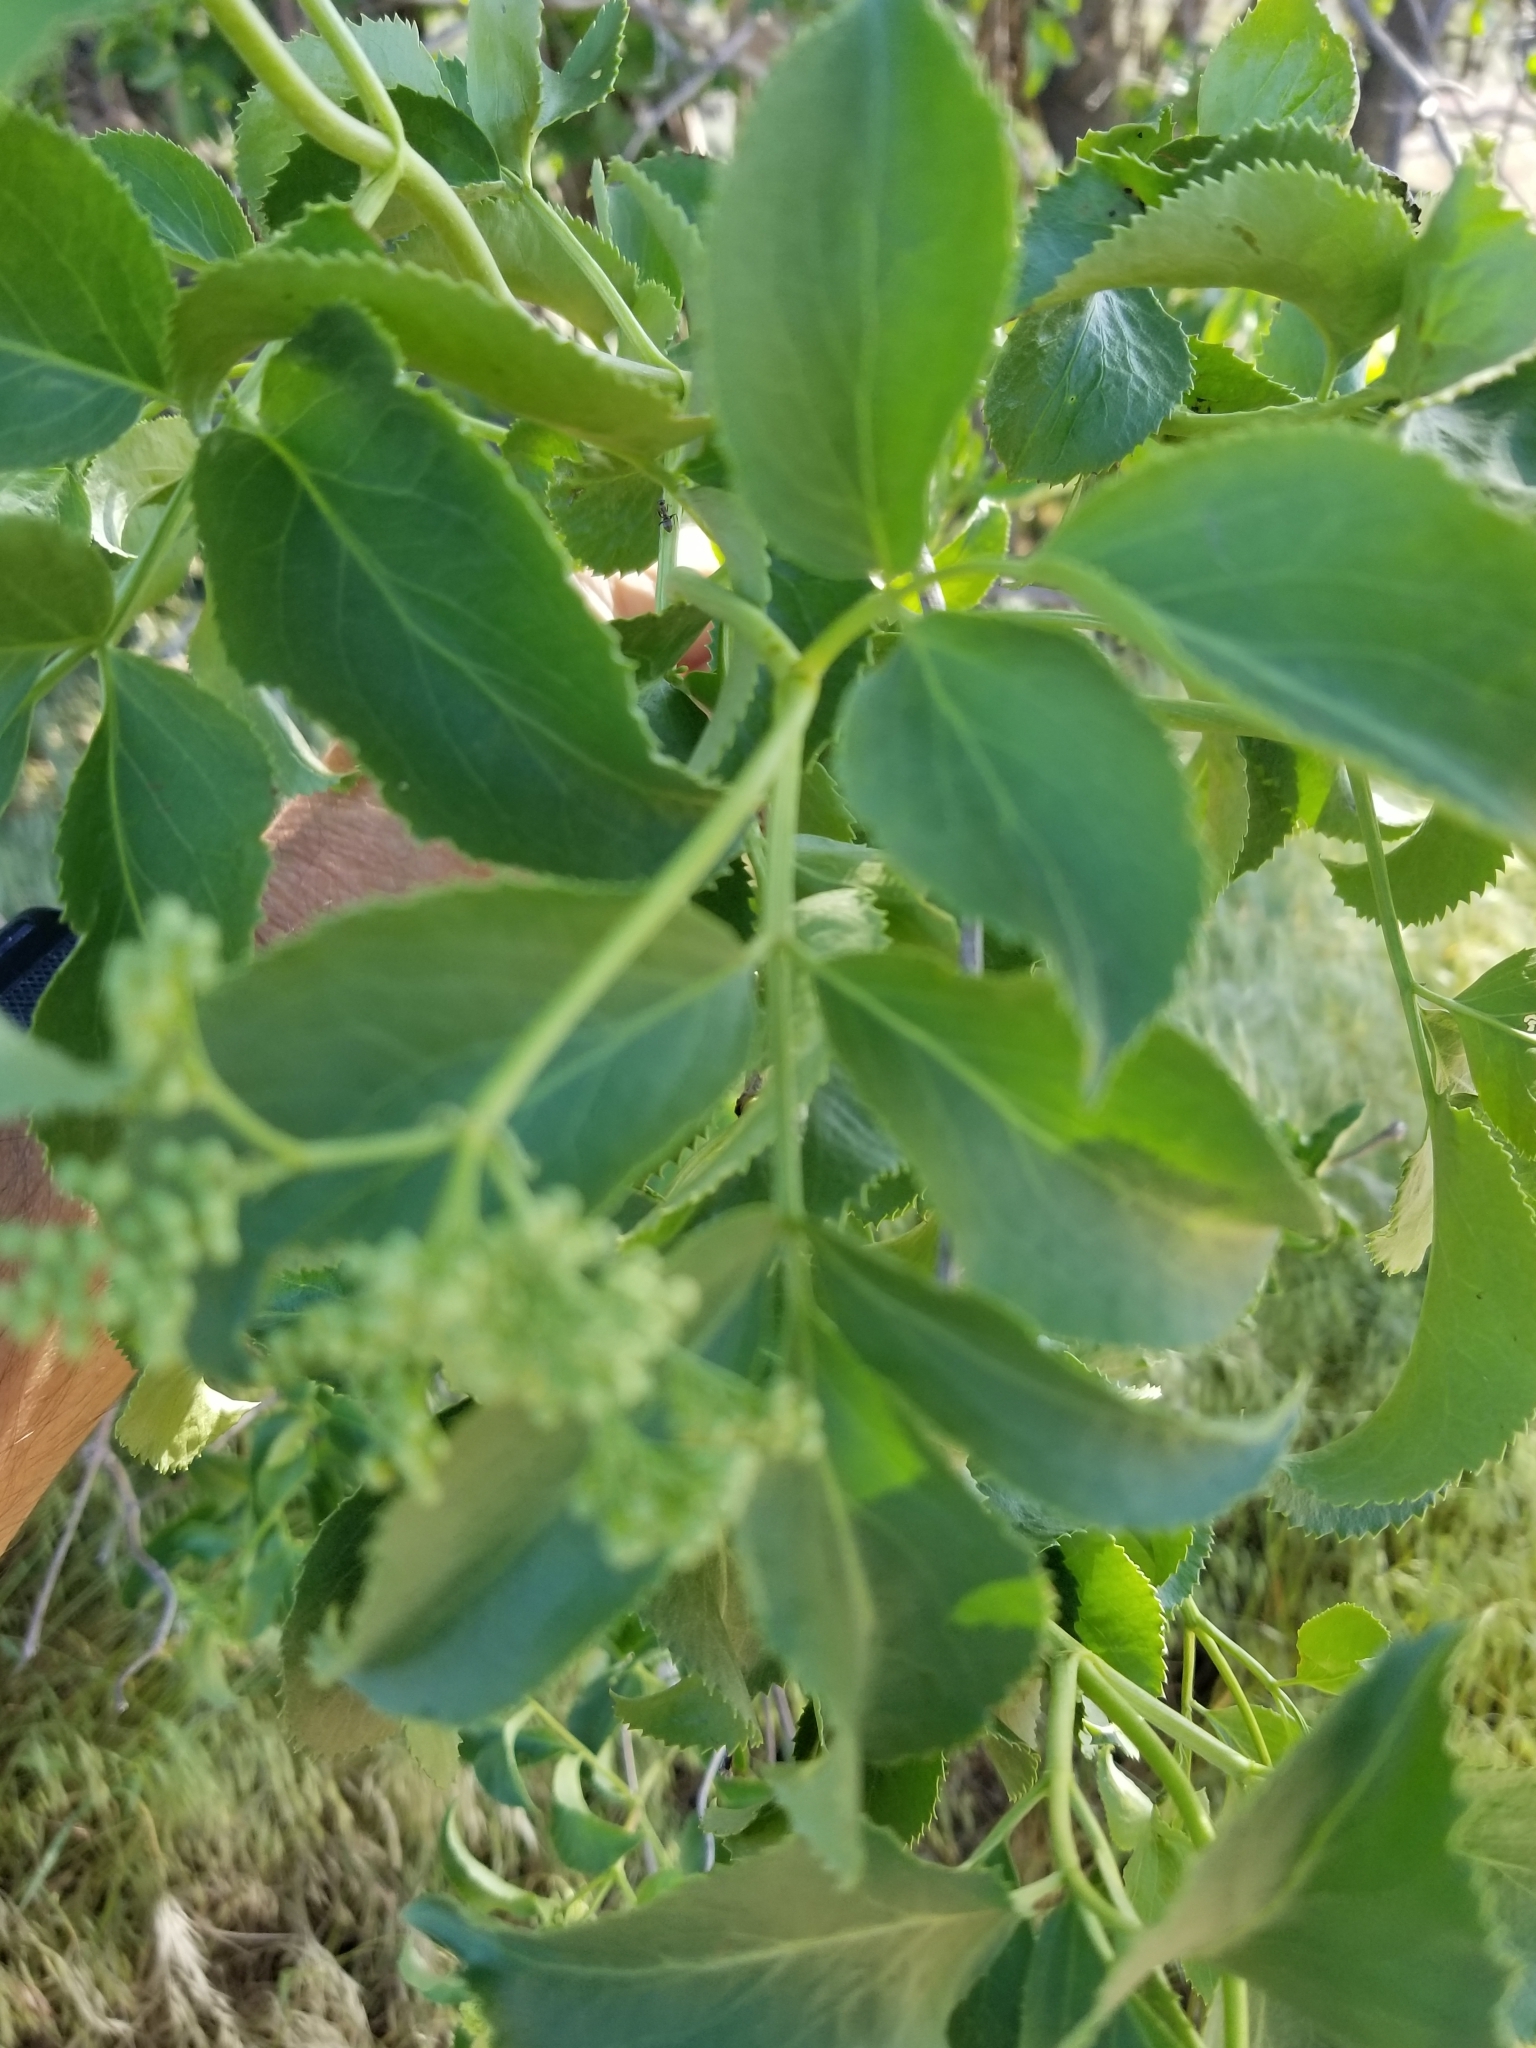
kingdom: Plantae
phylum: Tracheophyta
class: Magnoliopsida
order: Dipsacales
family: Viburnaceae
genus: Sambucus
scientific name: Sambucus cerulea
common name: Blue elder
